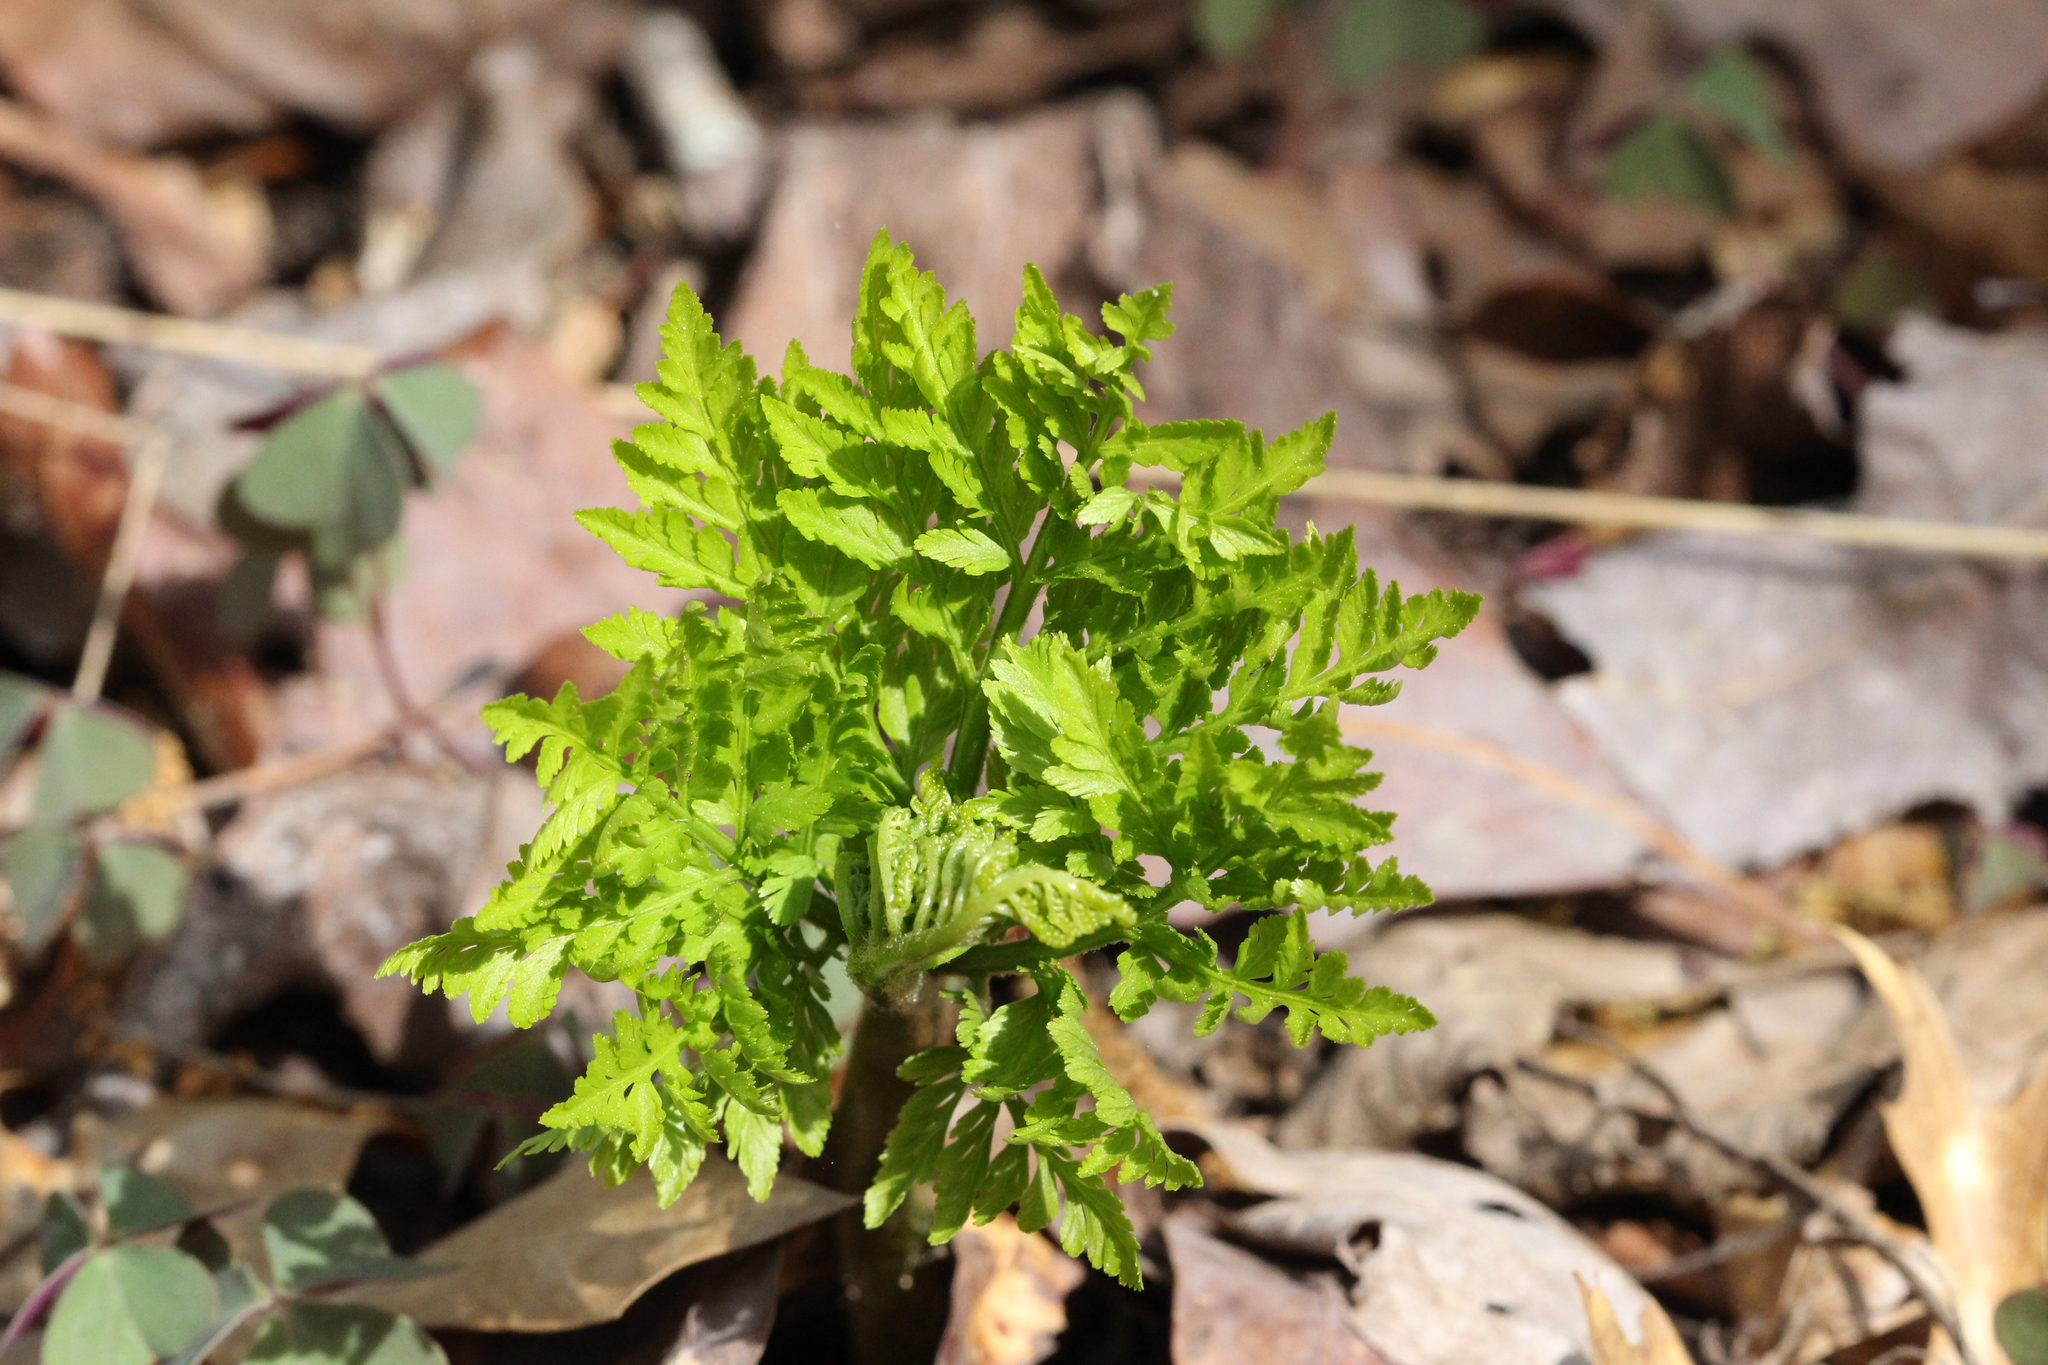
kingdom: Plantae
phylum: Tracheophyta
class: Polypodiopsida
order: Ophioglossales
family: Ophioglossaceae
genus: Botrypus
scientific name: Botrypus virginianus
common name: Common grapefern
